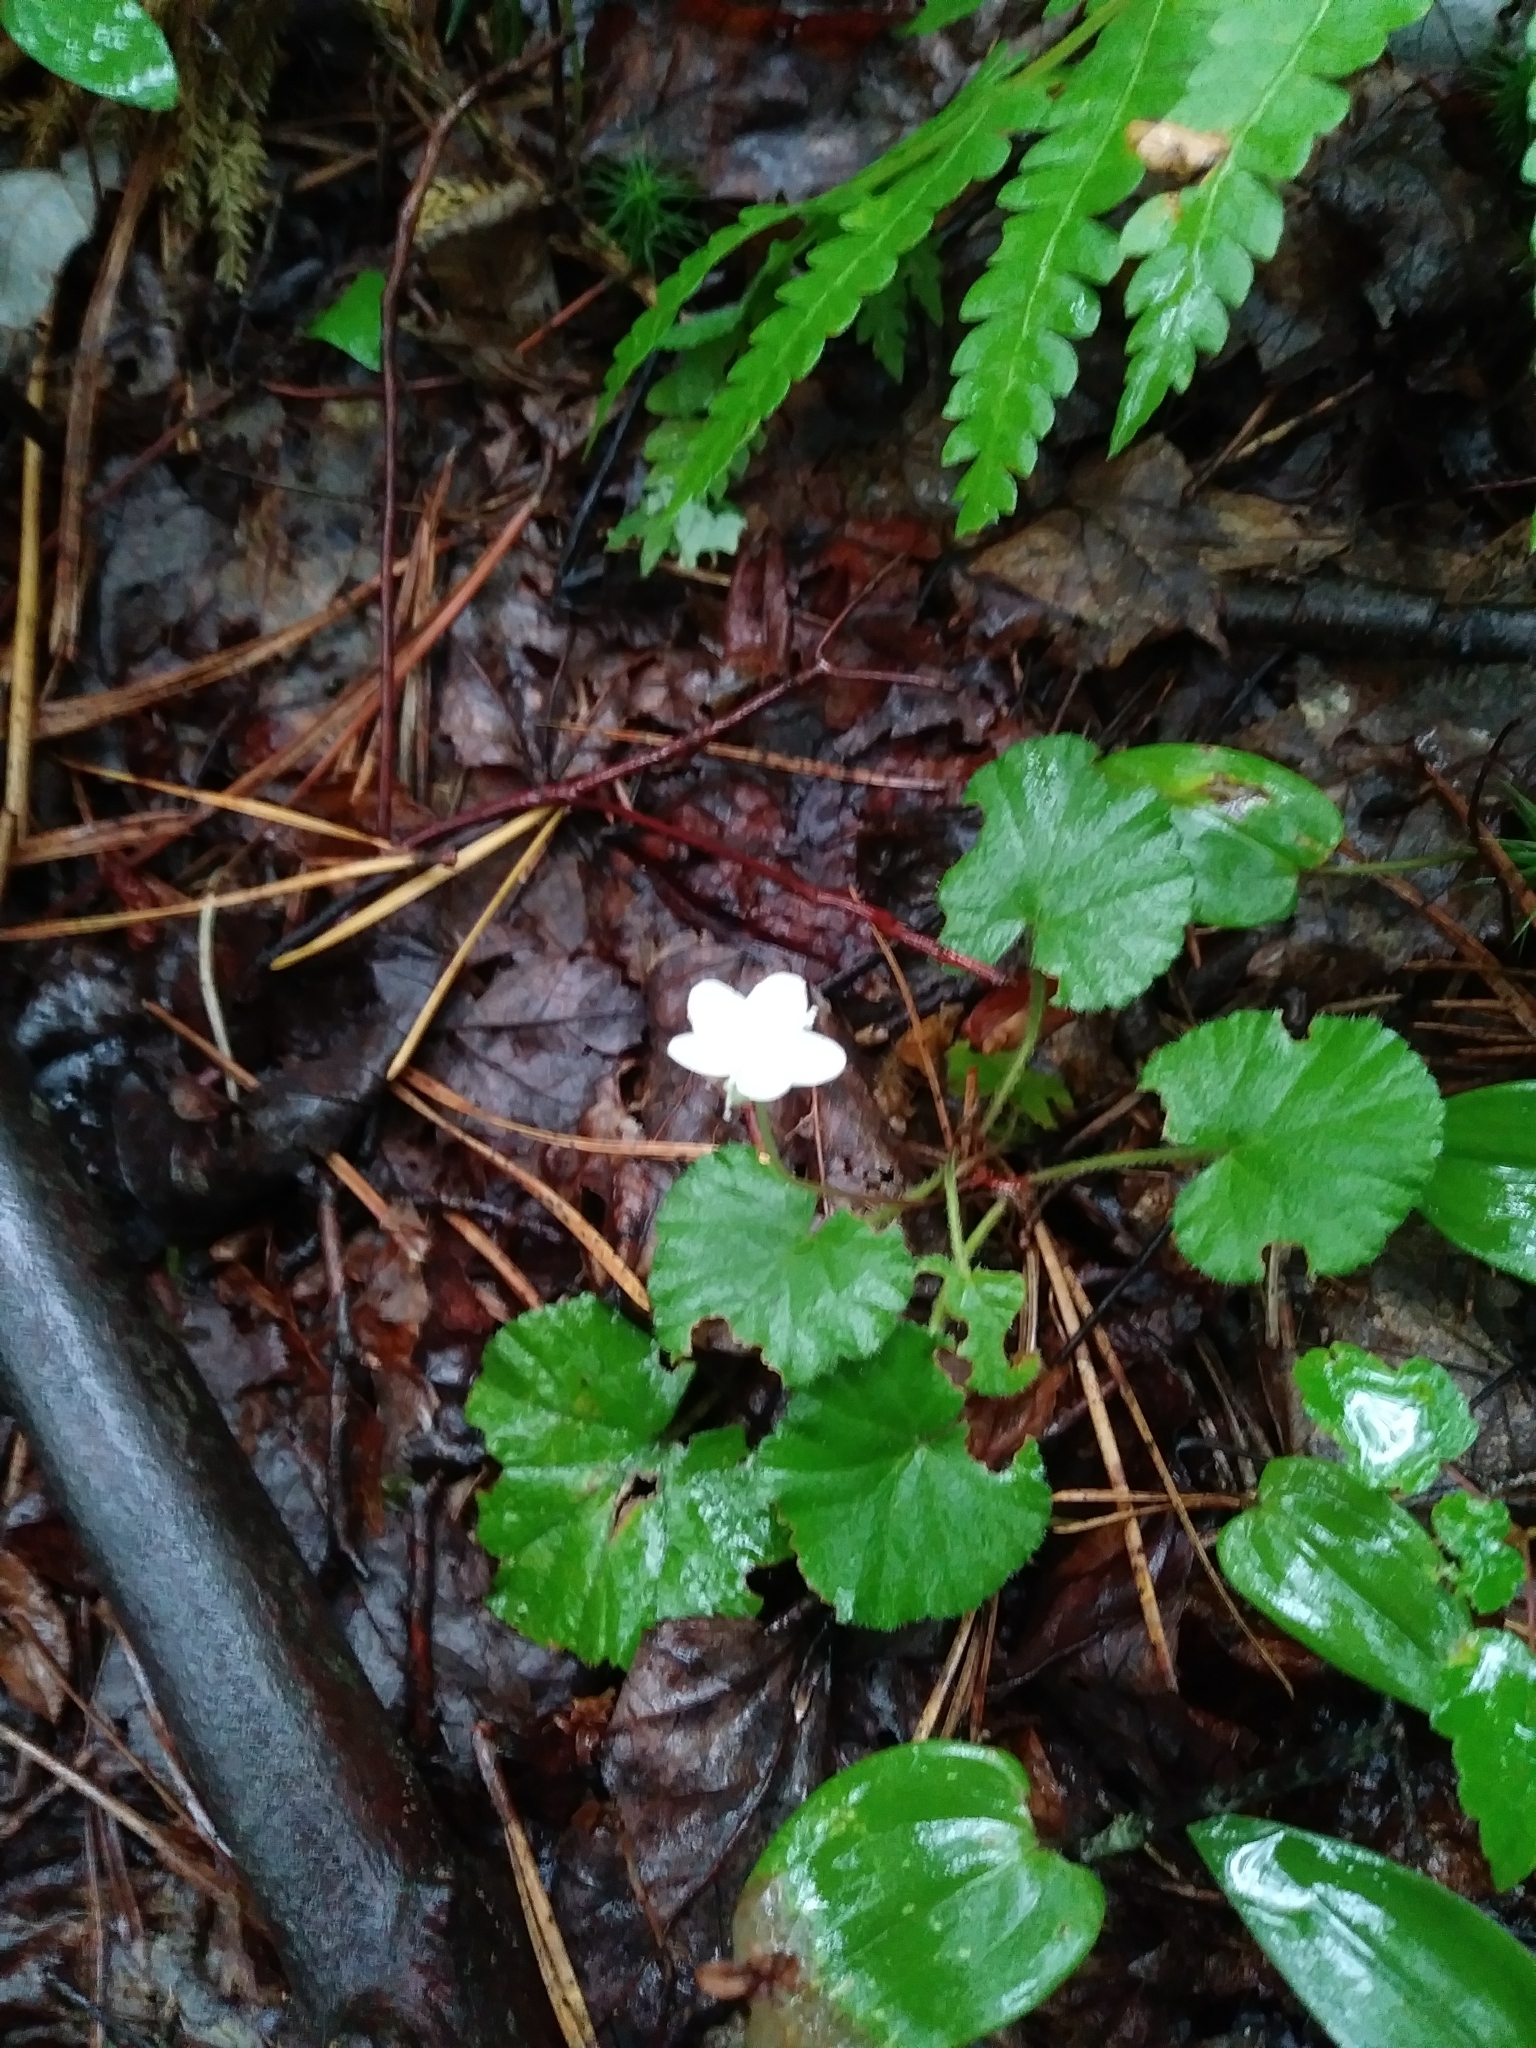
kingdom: Plantae
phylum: Tracheophyta
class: Magnoliopsida
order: Rosales
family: Rosaceae
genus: Dalibarda
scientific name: Dalibarda repens
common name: Dewdrop
